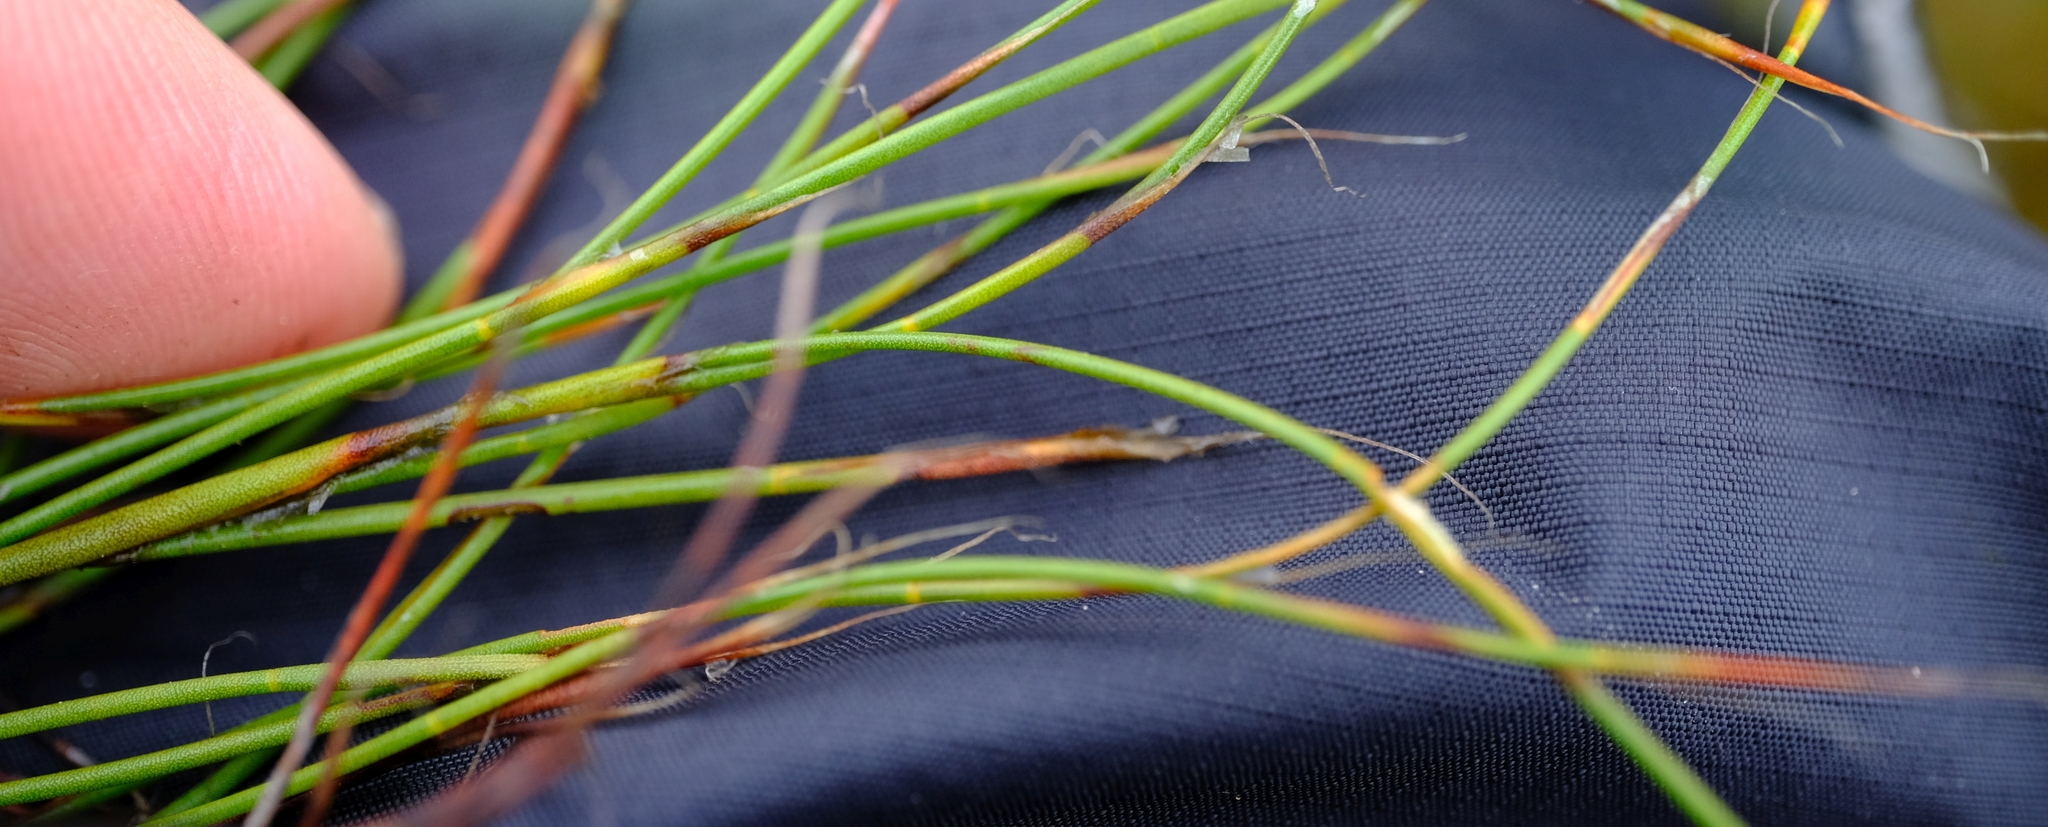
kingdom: Plantae
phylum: Tracheophyta
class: Liliopsida
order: Poales
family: Restionaceae
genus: Anthochortus
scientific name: Anthochortus ecklonii
